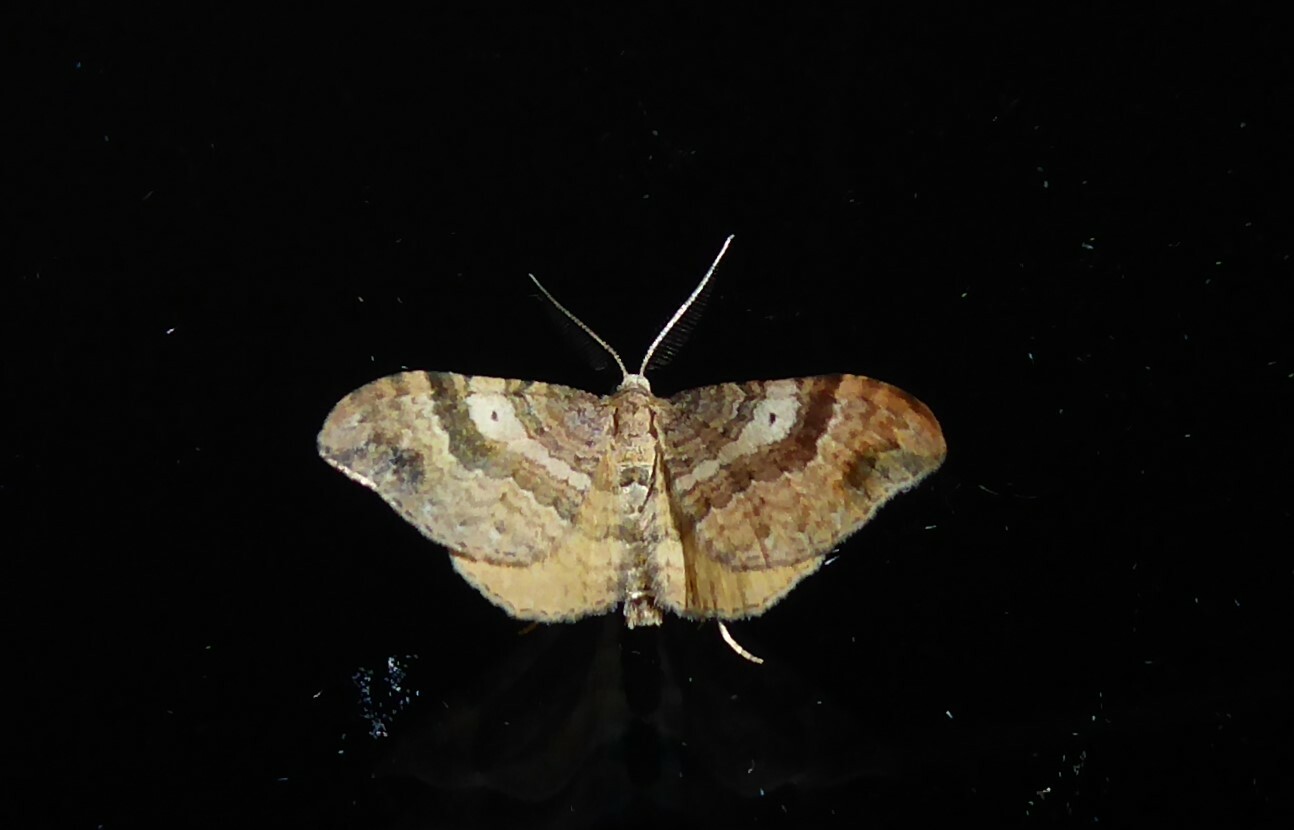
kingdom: Animalia
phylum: Arthropoda
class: Insecta
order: Lepidoptera
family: Geometridae
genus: Homodotis
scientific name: Homodotis megaspilata
